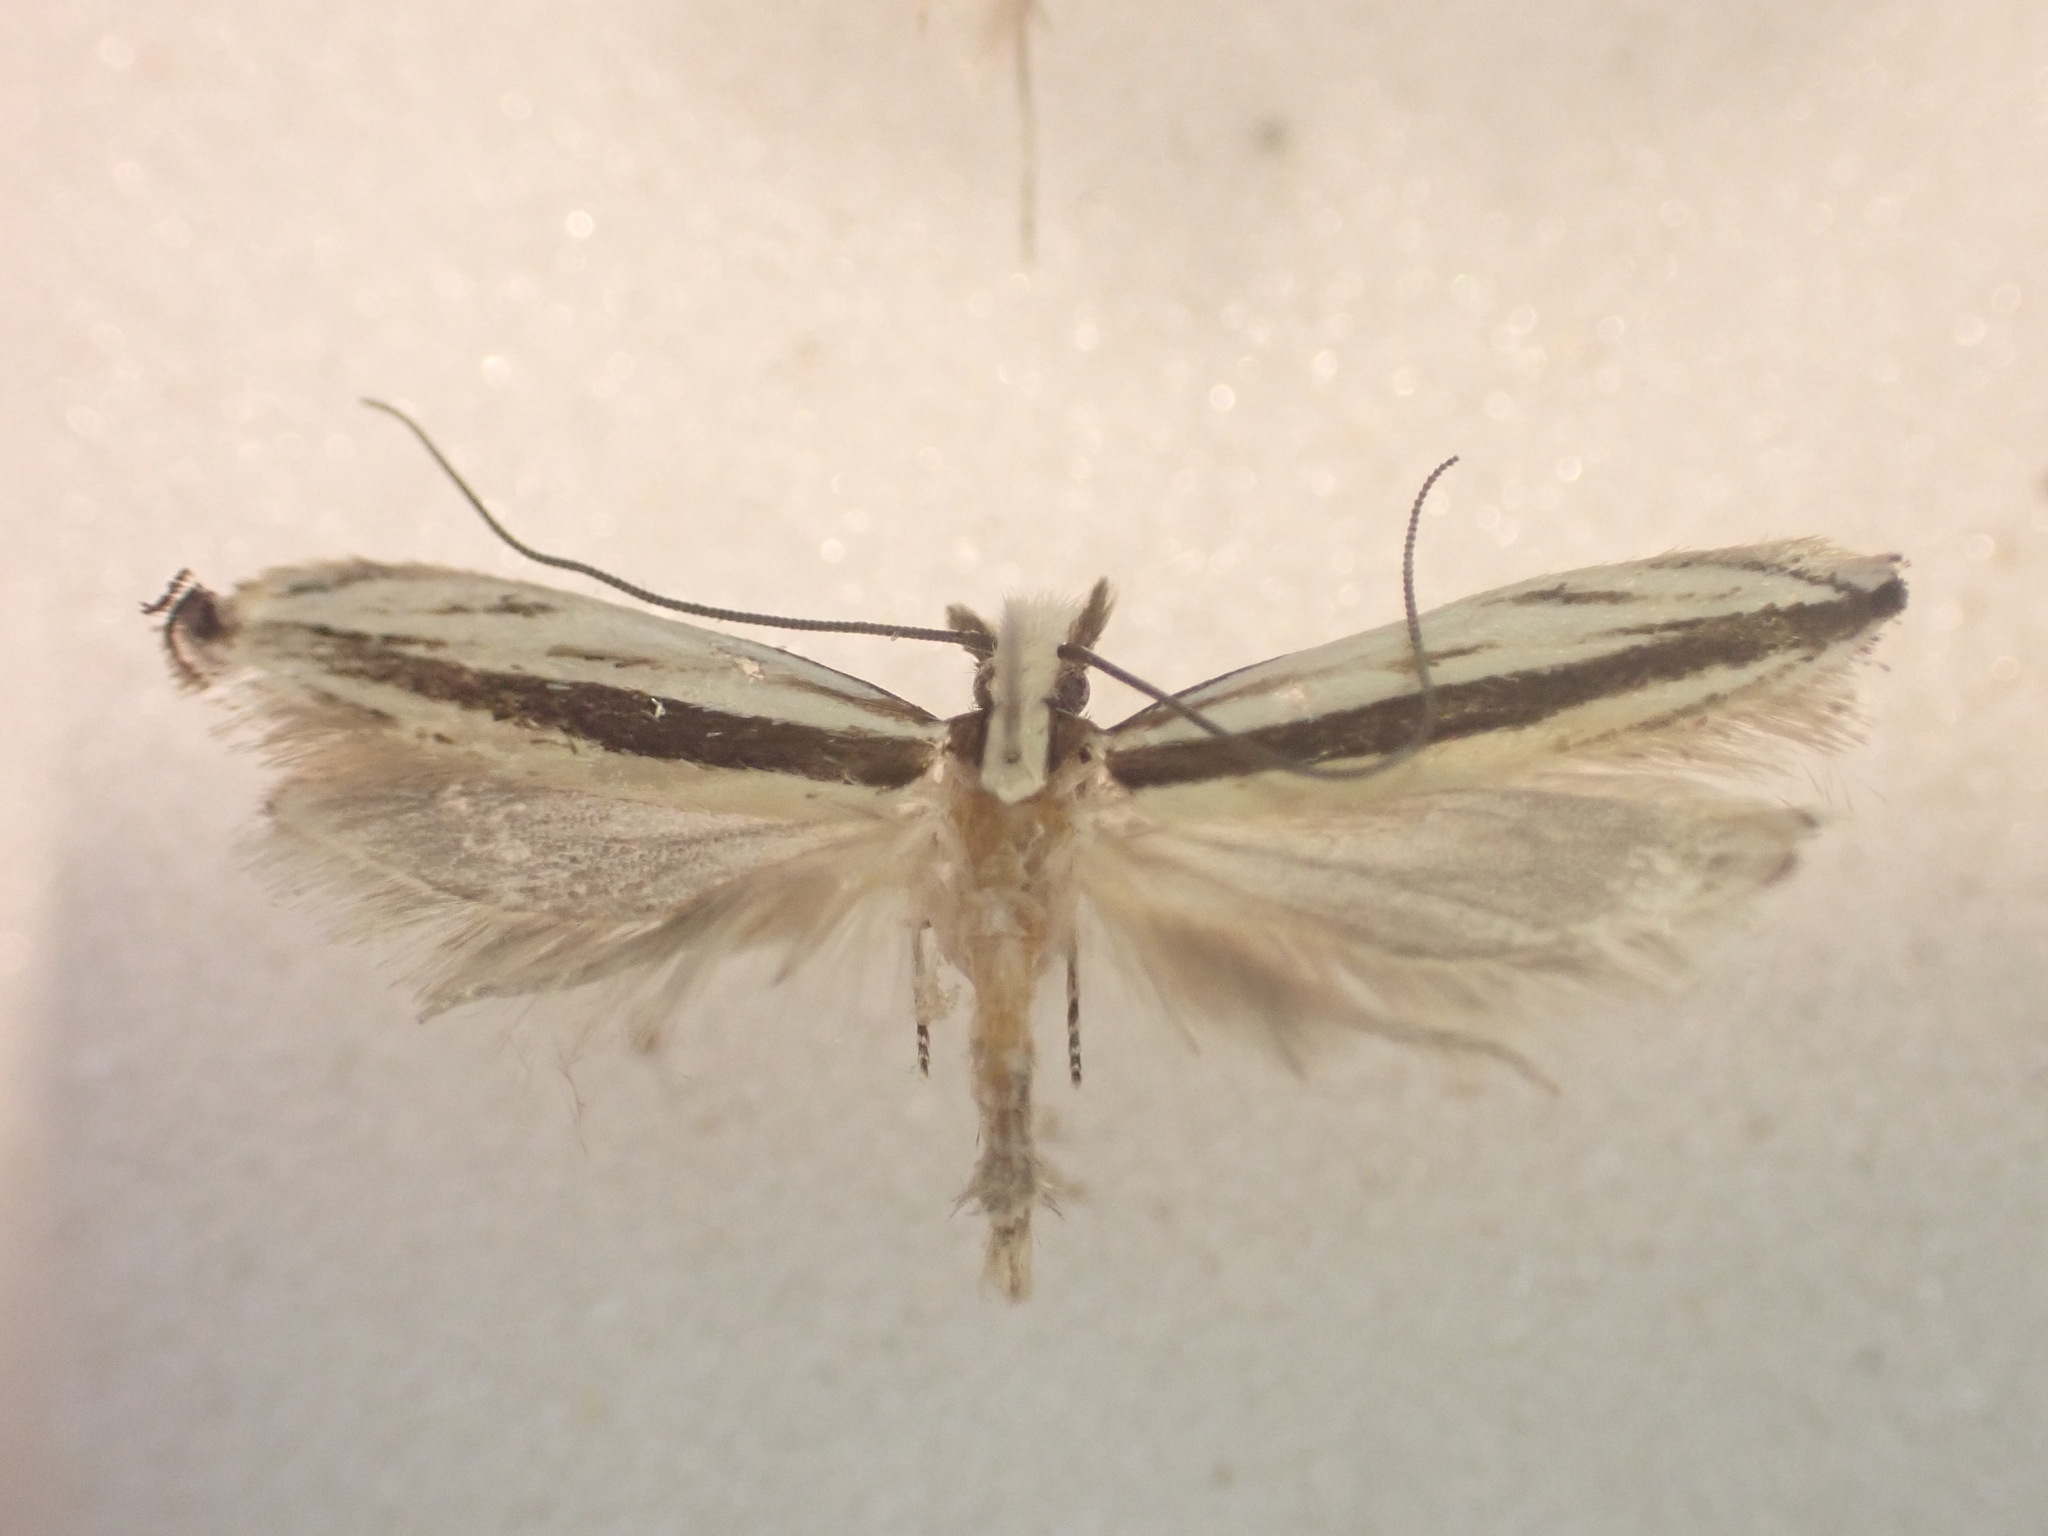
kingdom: Animalia
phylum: Arthropoda
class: Insecta
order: Lepidoptera
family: Tineidae
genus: Erechthias
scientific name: Erechthias stilbella
